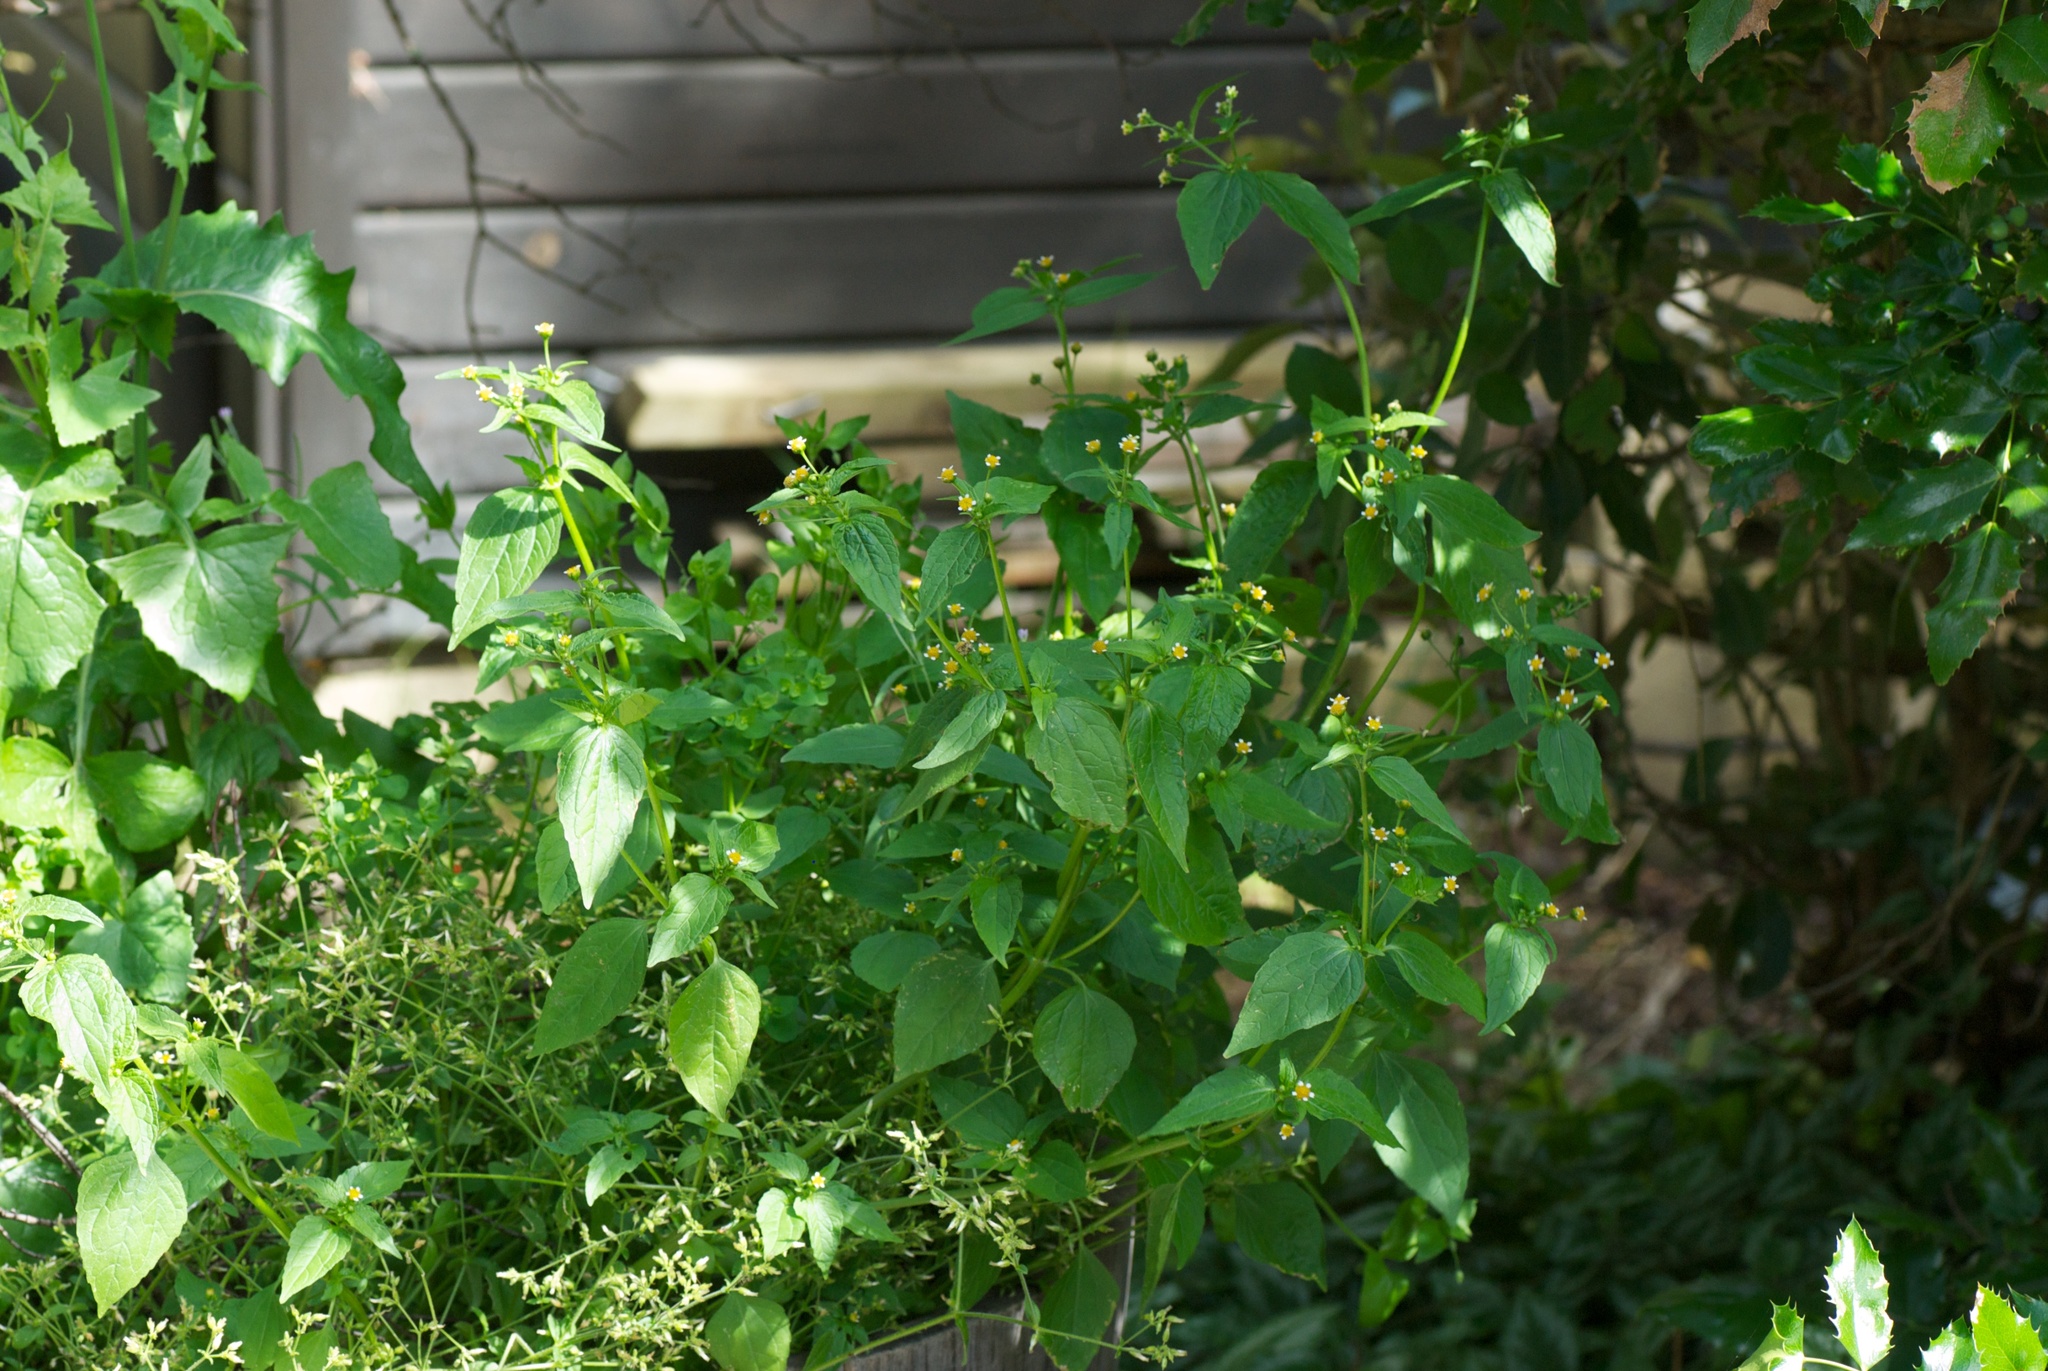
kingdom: Plantae
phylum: Tracheophyta
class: Magnoliopsida
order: Asterales
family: Asteraceae
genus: Galinsoga
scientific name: Galinsoga parviflora
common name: Gallant soldier
